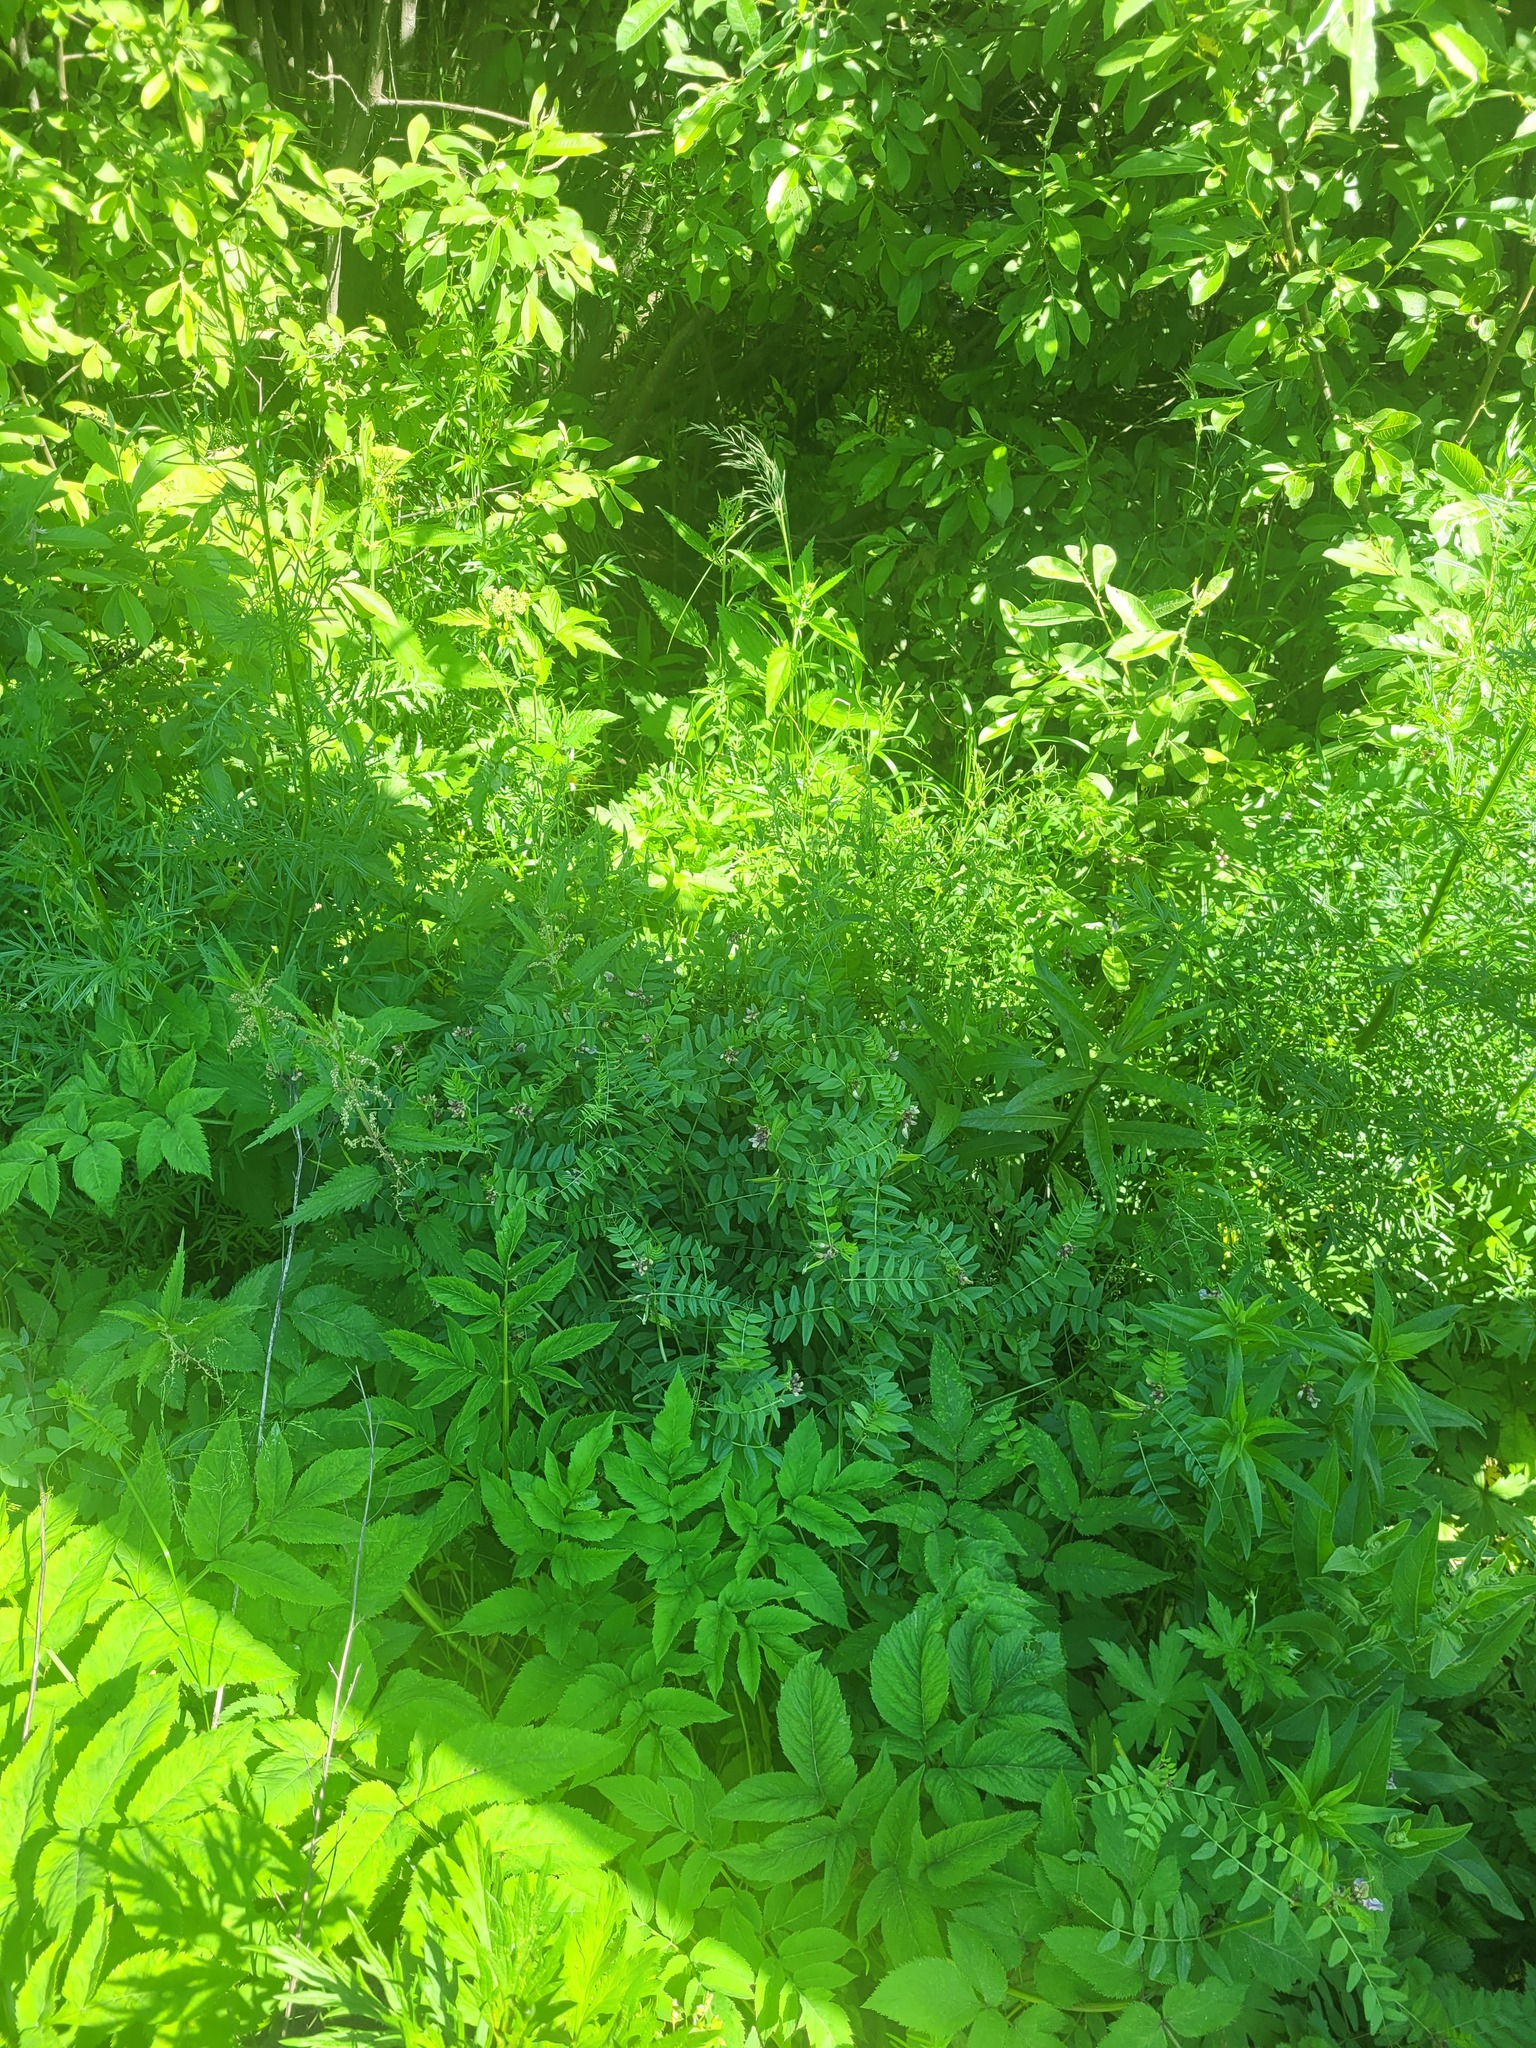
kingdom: Plantae
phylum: Tracheophyta
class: Magnoliopsida
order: Fabales
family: Fabaceae
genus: Vicia
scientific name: Vicia sepium
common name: Bush vetch
